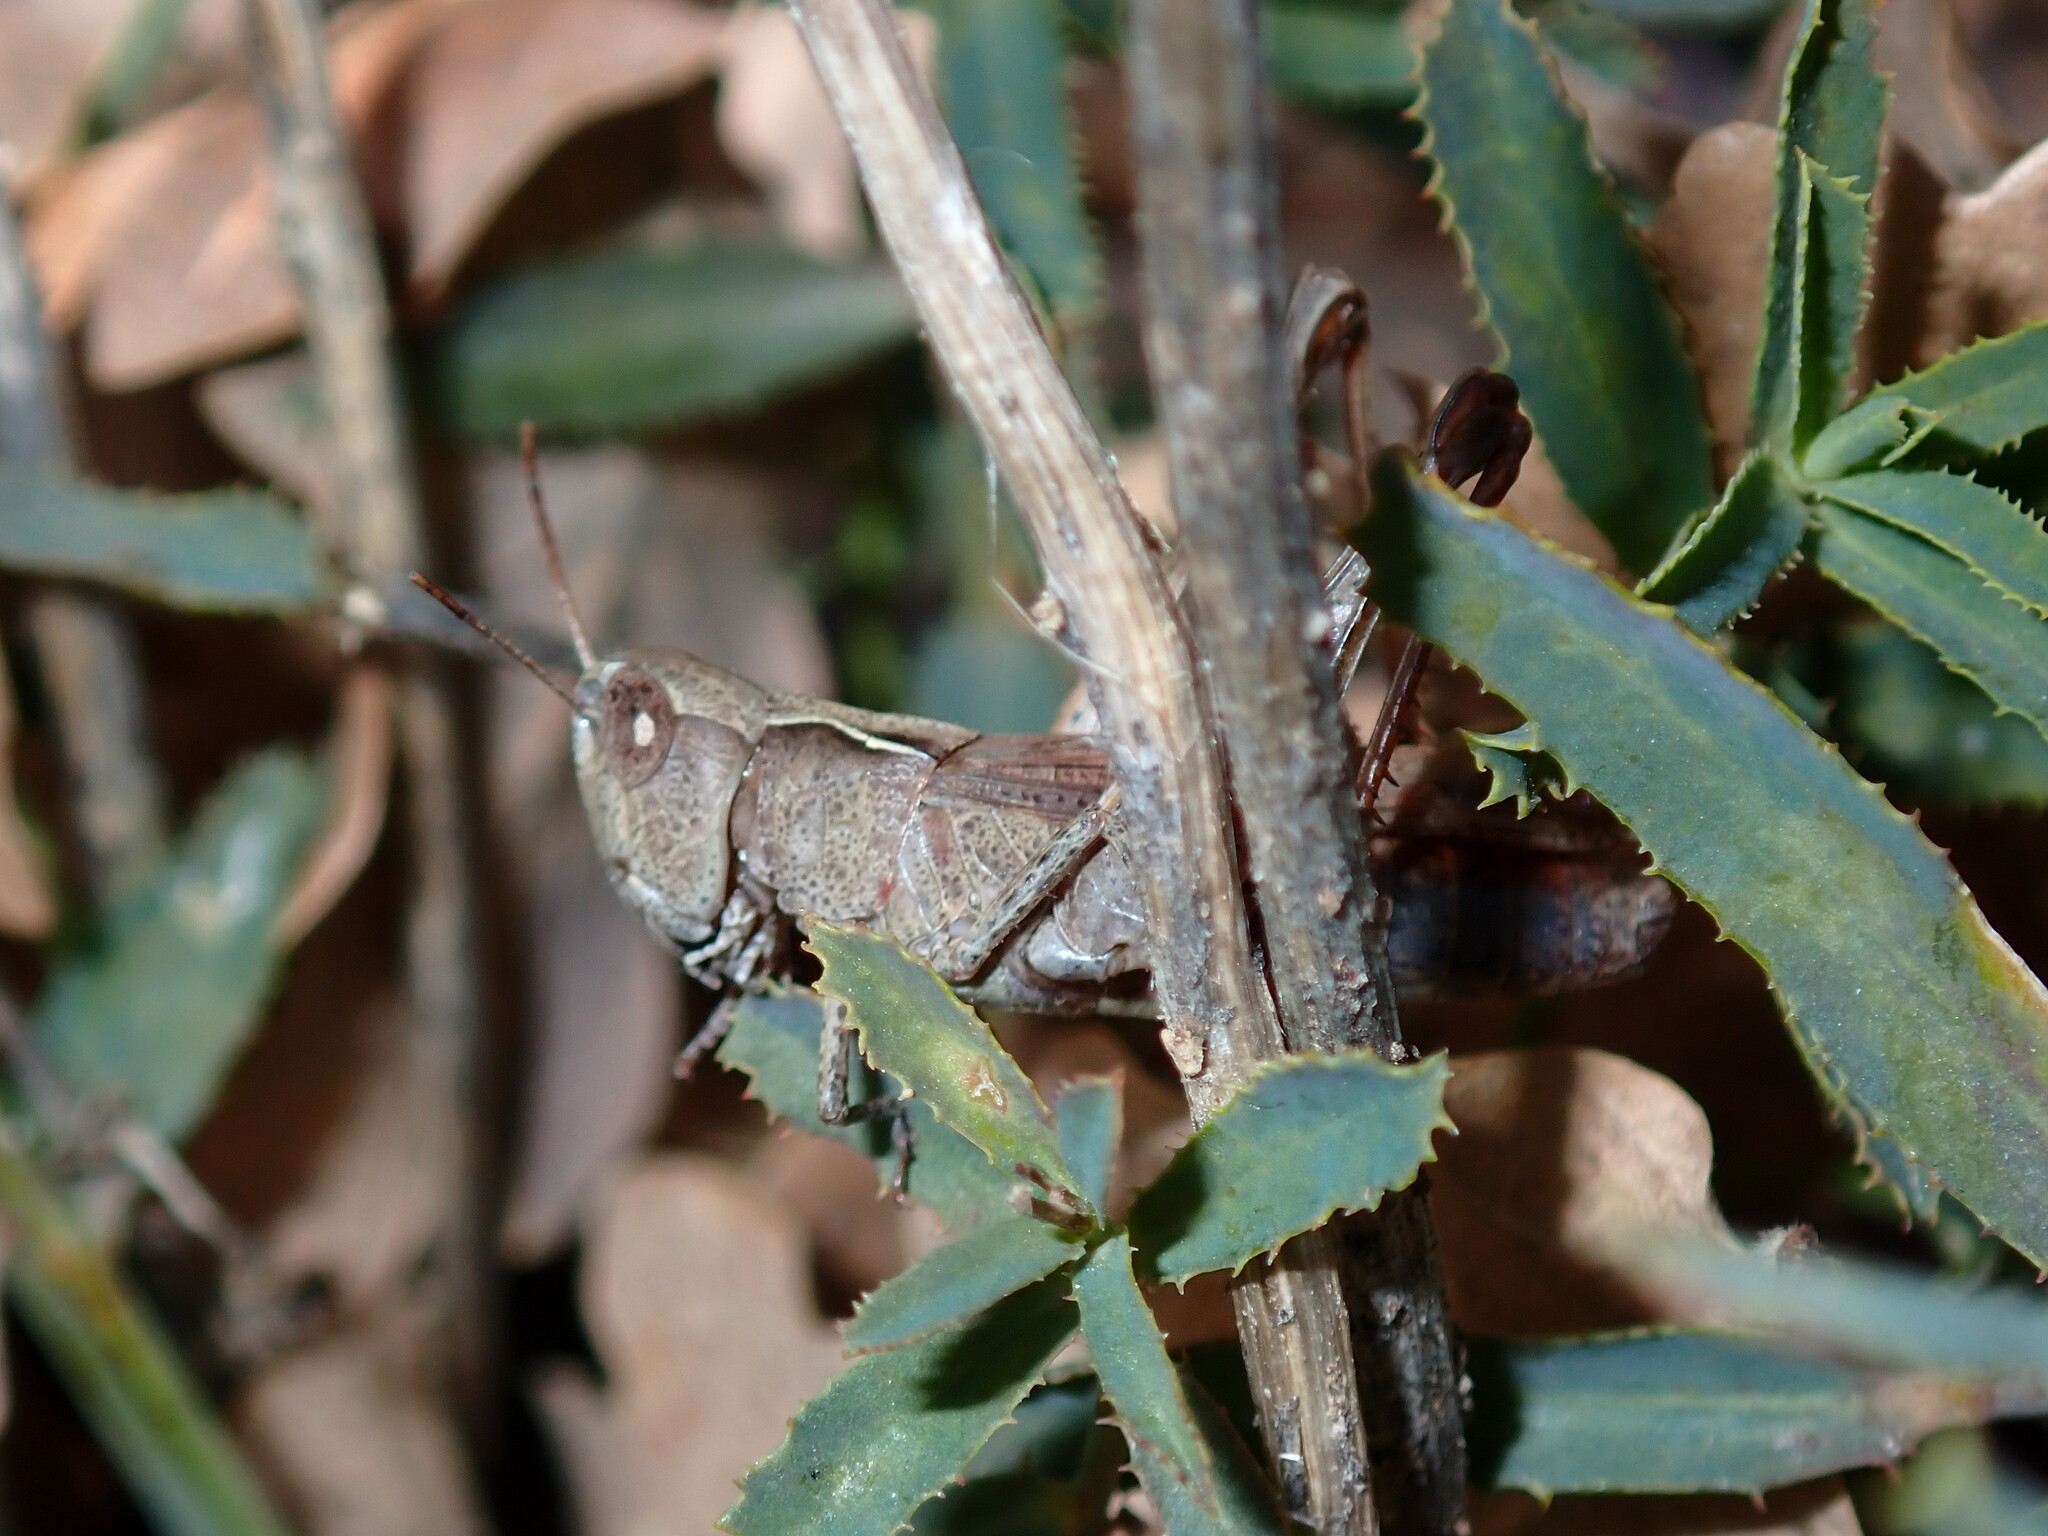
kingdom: Animalia
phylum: Arthropoda
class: Insecta
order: Orthoptera
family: Acrididae
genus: Chorthippus
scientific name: Chorthippus vagans
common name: Heath grasshopper
